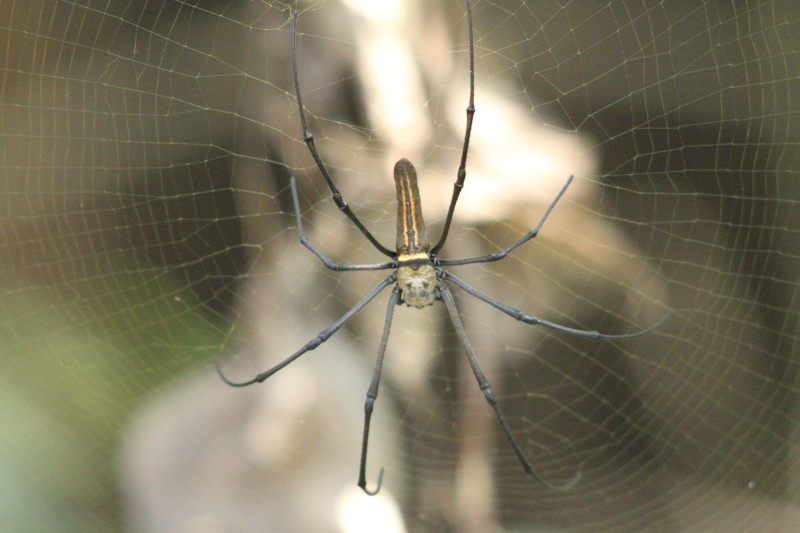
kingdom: Animalia
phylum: Arthropoda
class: Arachnida
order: Araneae
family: Araneidae
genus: Nephila
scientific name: Nephila pilipes
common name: Giant golden orb weaver
